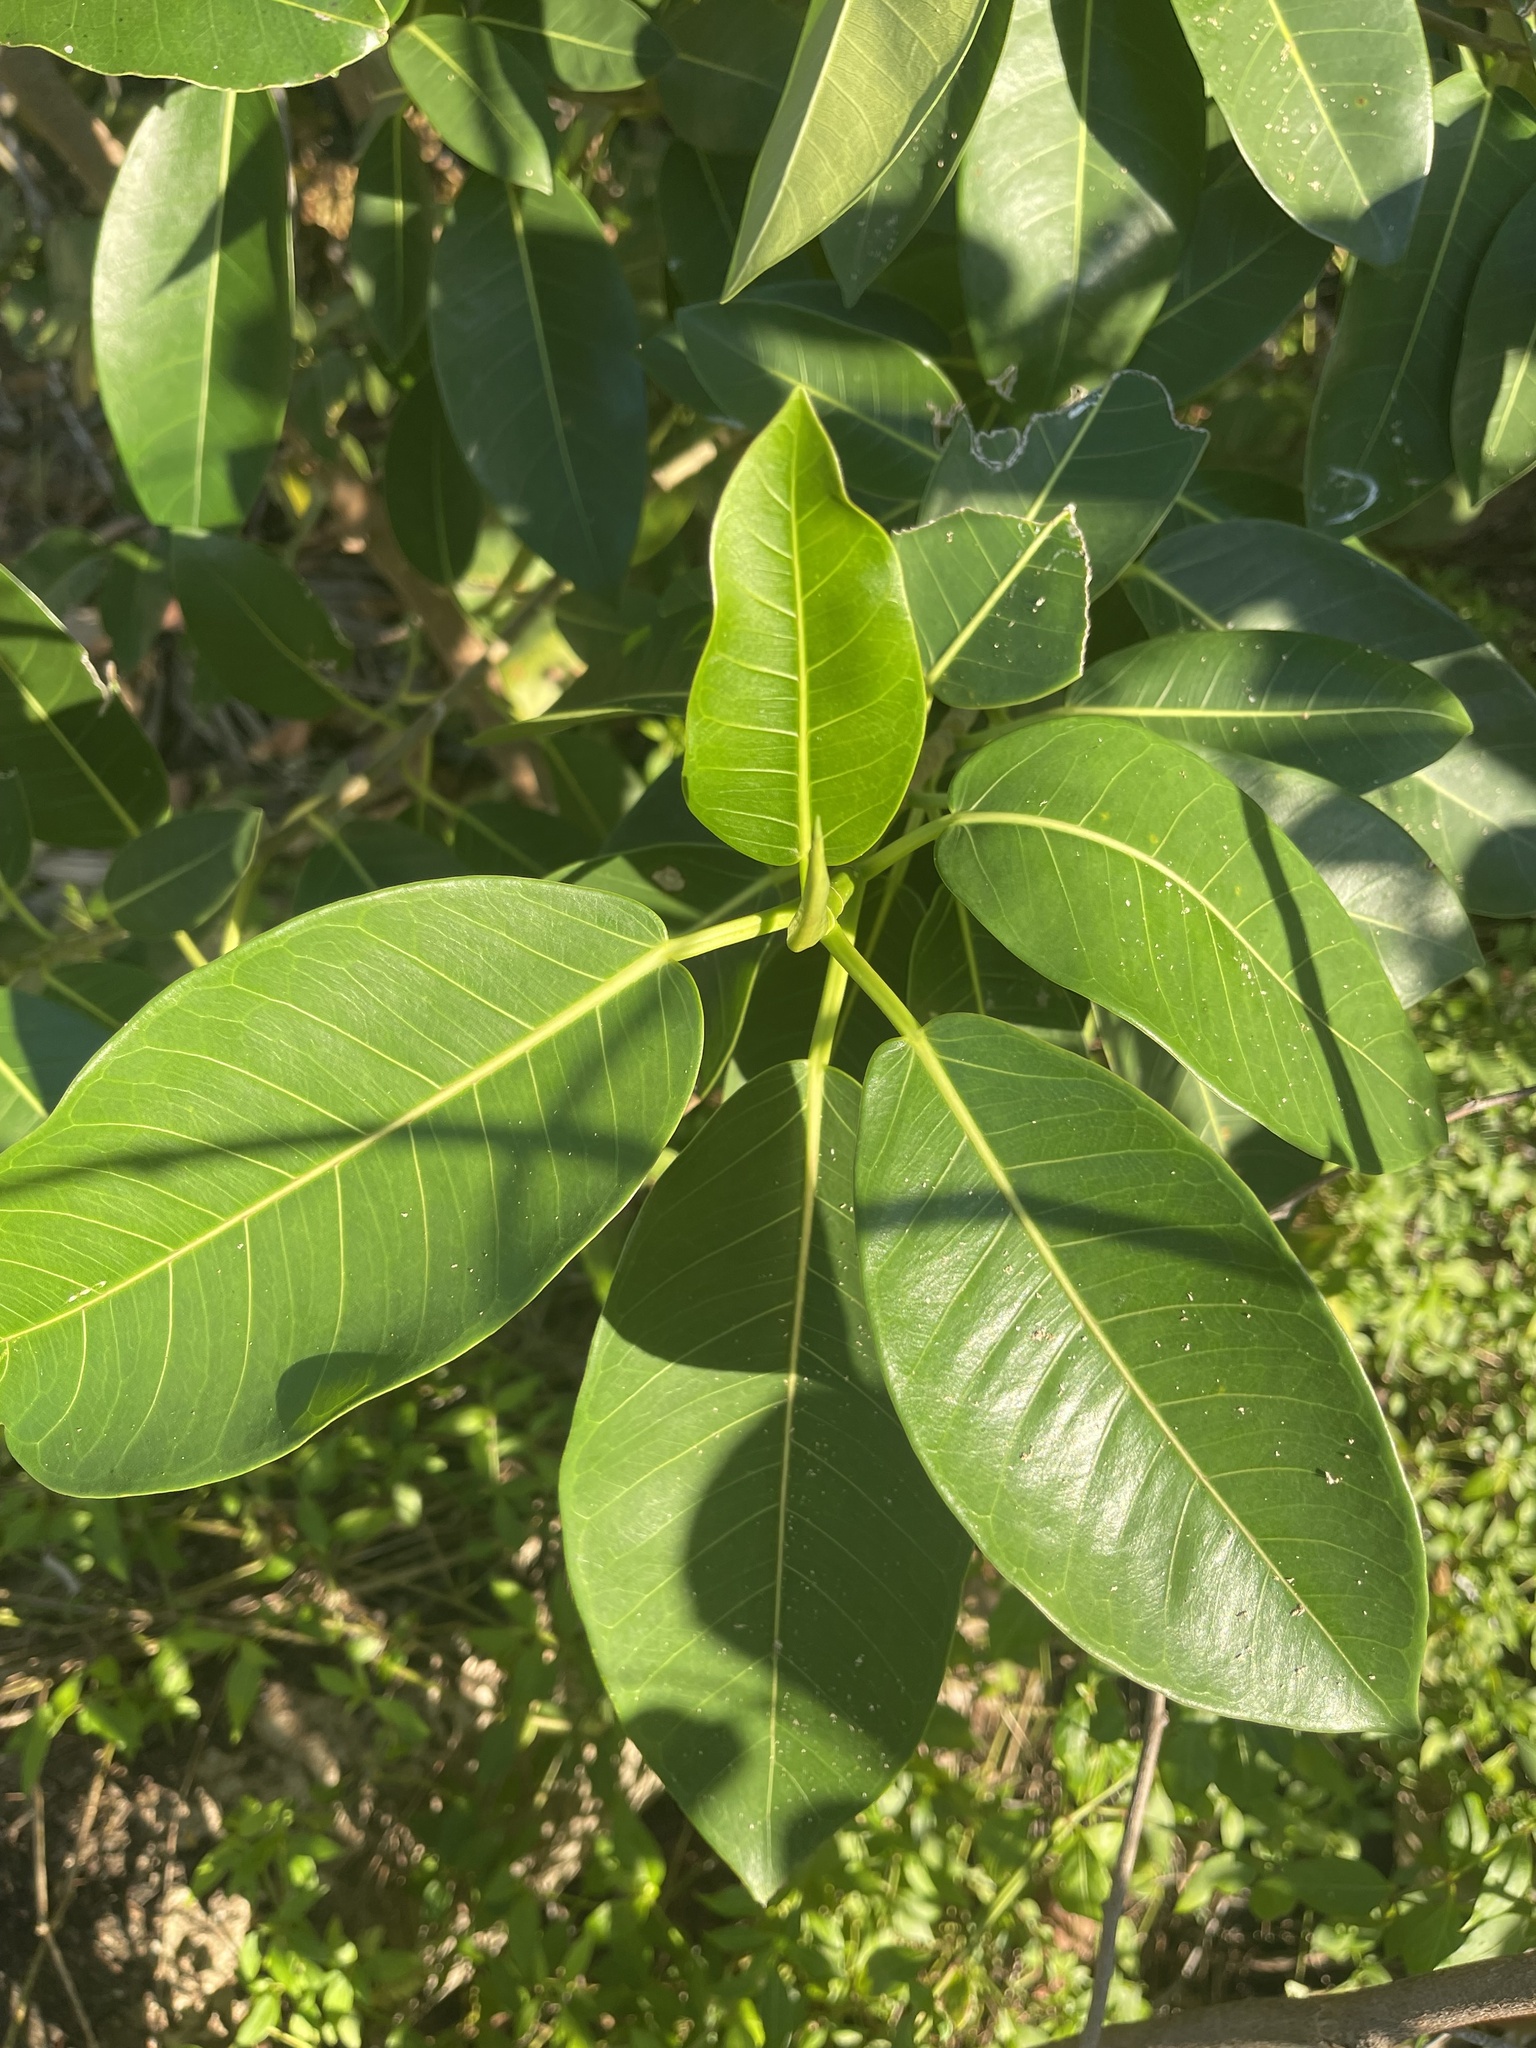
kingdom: Plantae
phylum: Tracheophyta
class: Magnoliopsida
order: Rosales
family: Moraceae
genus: Ficus
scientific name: Ficus aurea
